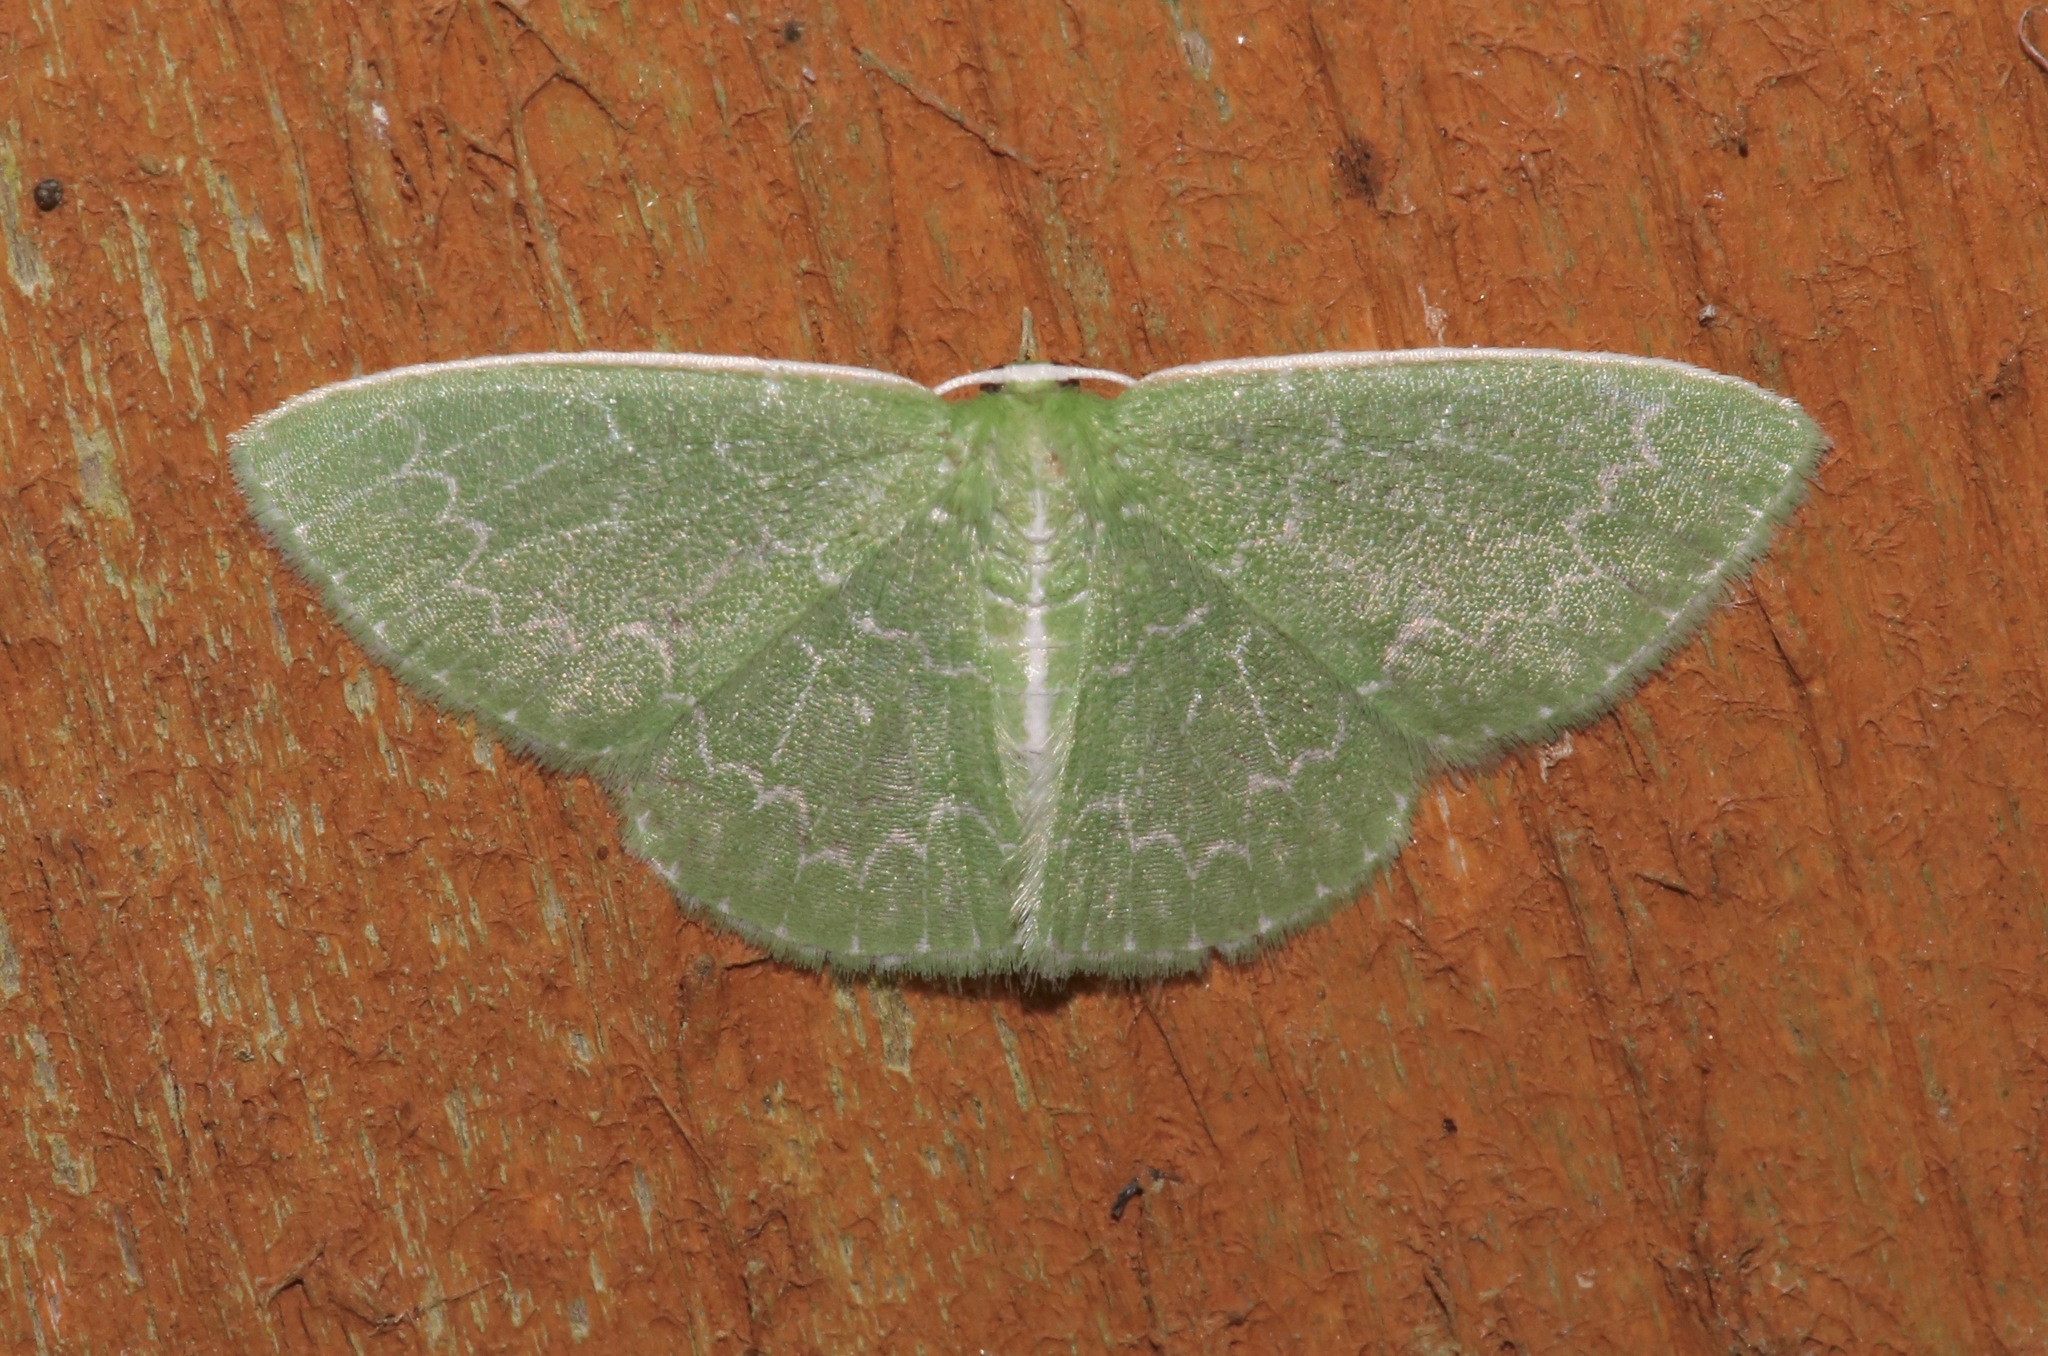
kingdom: Animalia
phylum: Arthropoda
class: Insecta
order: Lepidoptera
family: Geometridae
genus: Synchlora
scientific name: Synchlora frondaria
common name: Southern emerald
